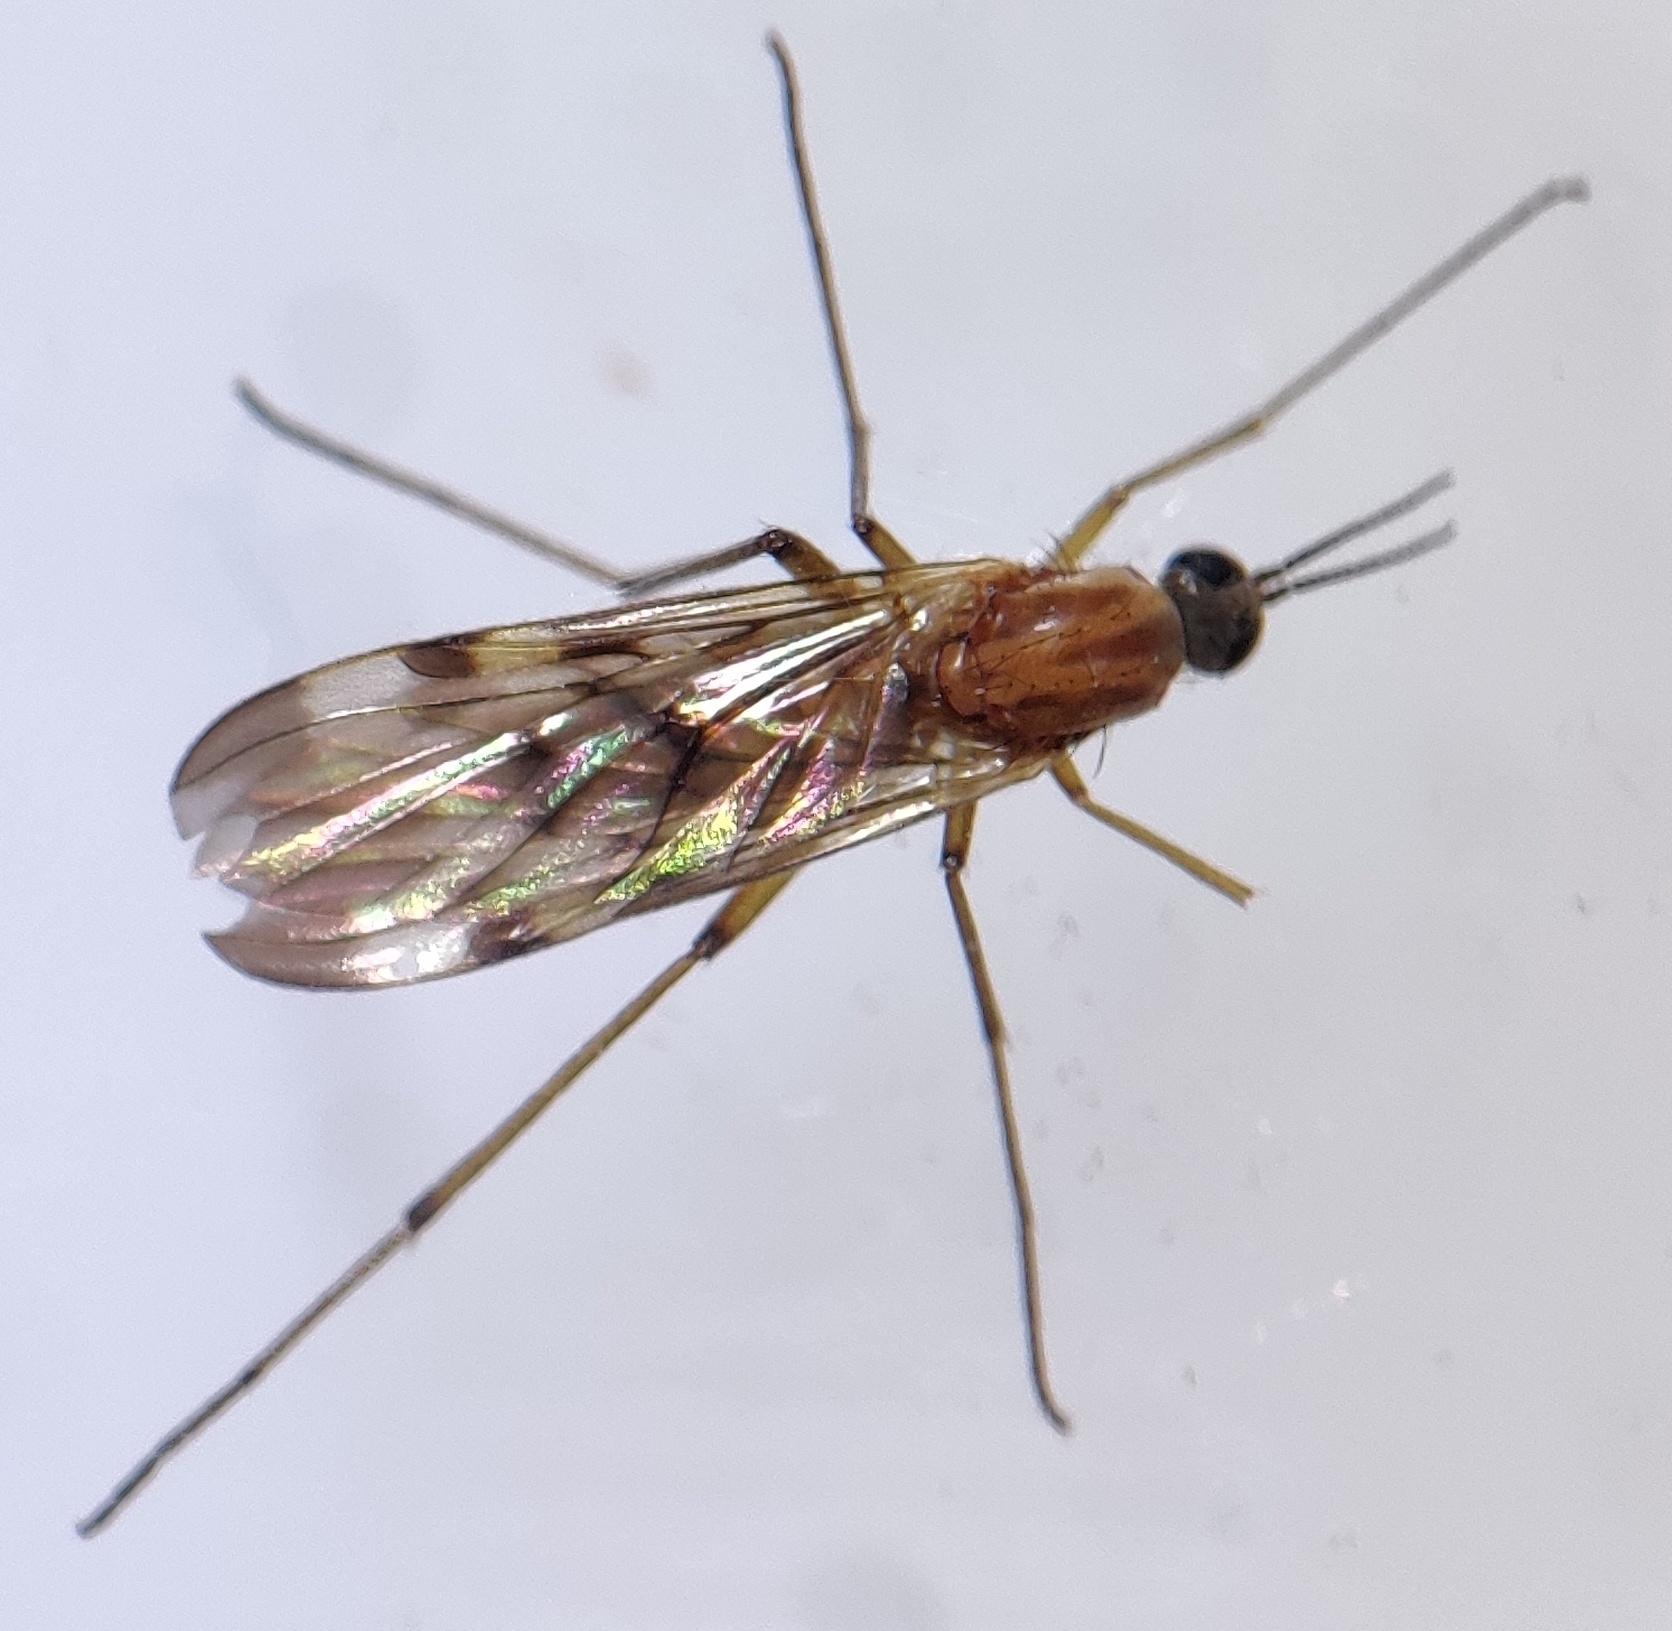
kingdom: Animalia
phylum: Arthropoda
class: Insecta
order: Diptera
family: Anisopodidae
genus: Sylvicola
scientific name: Sylvicola
